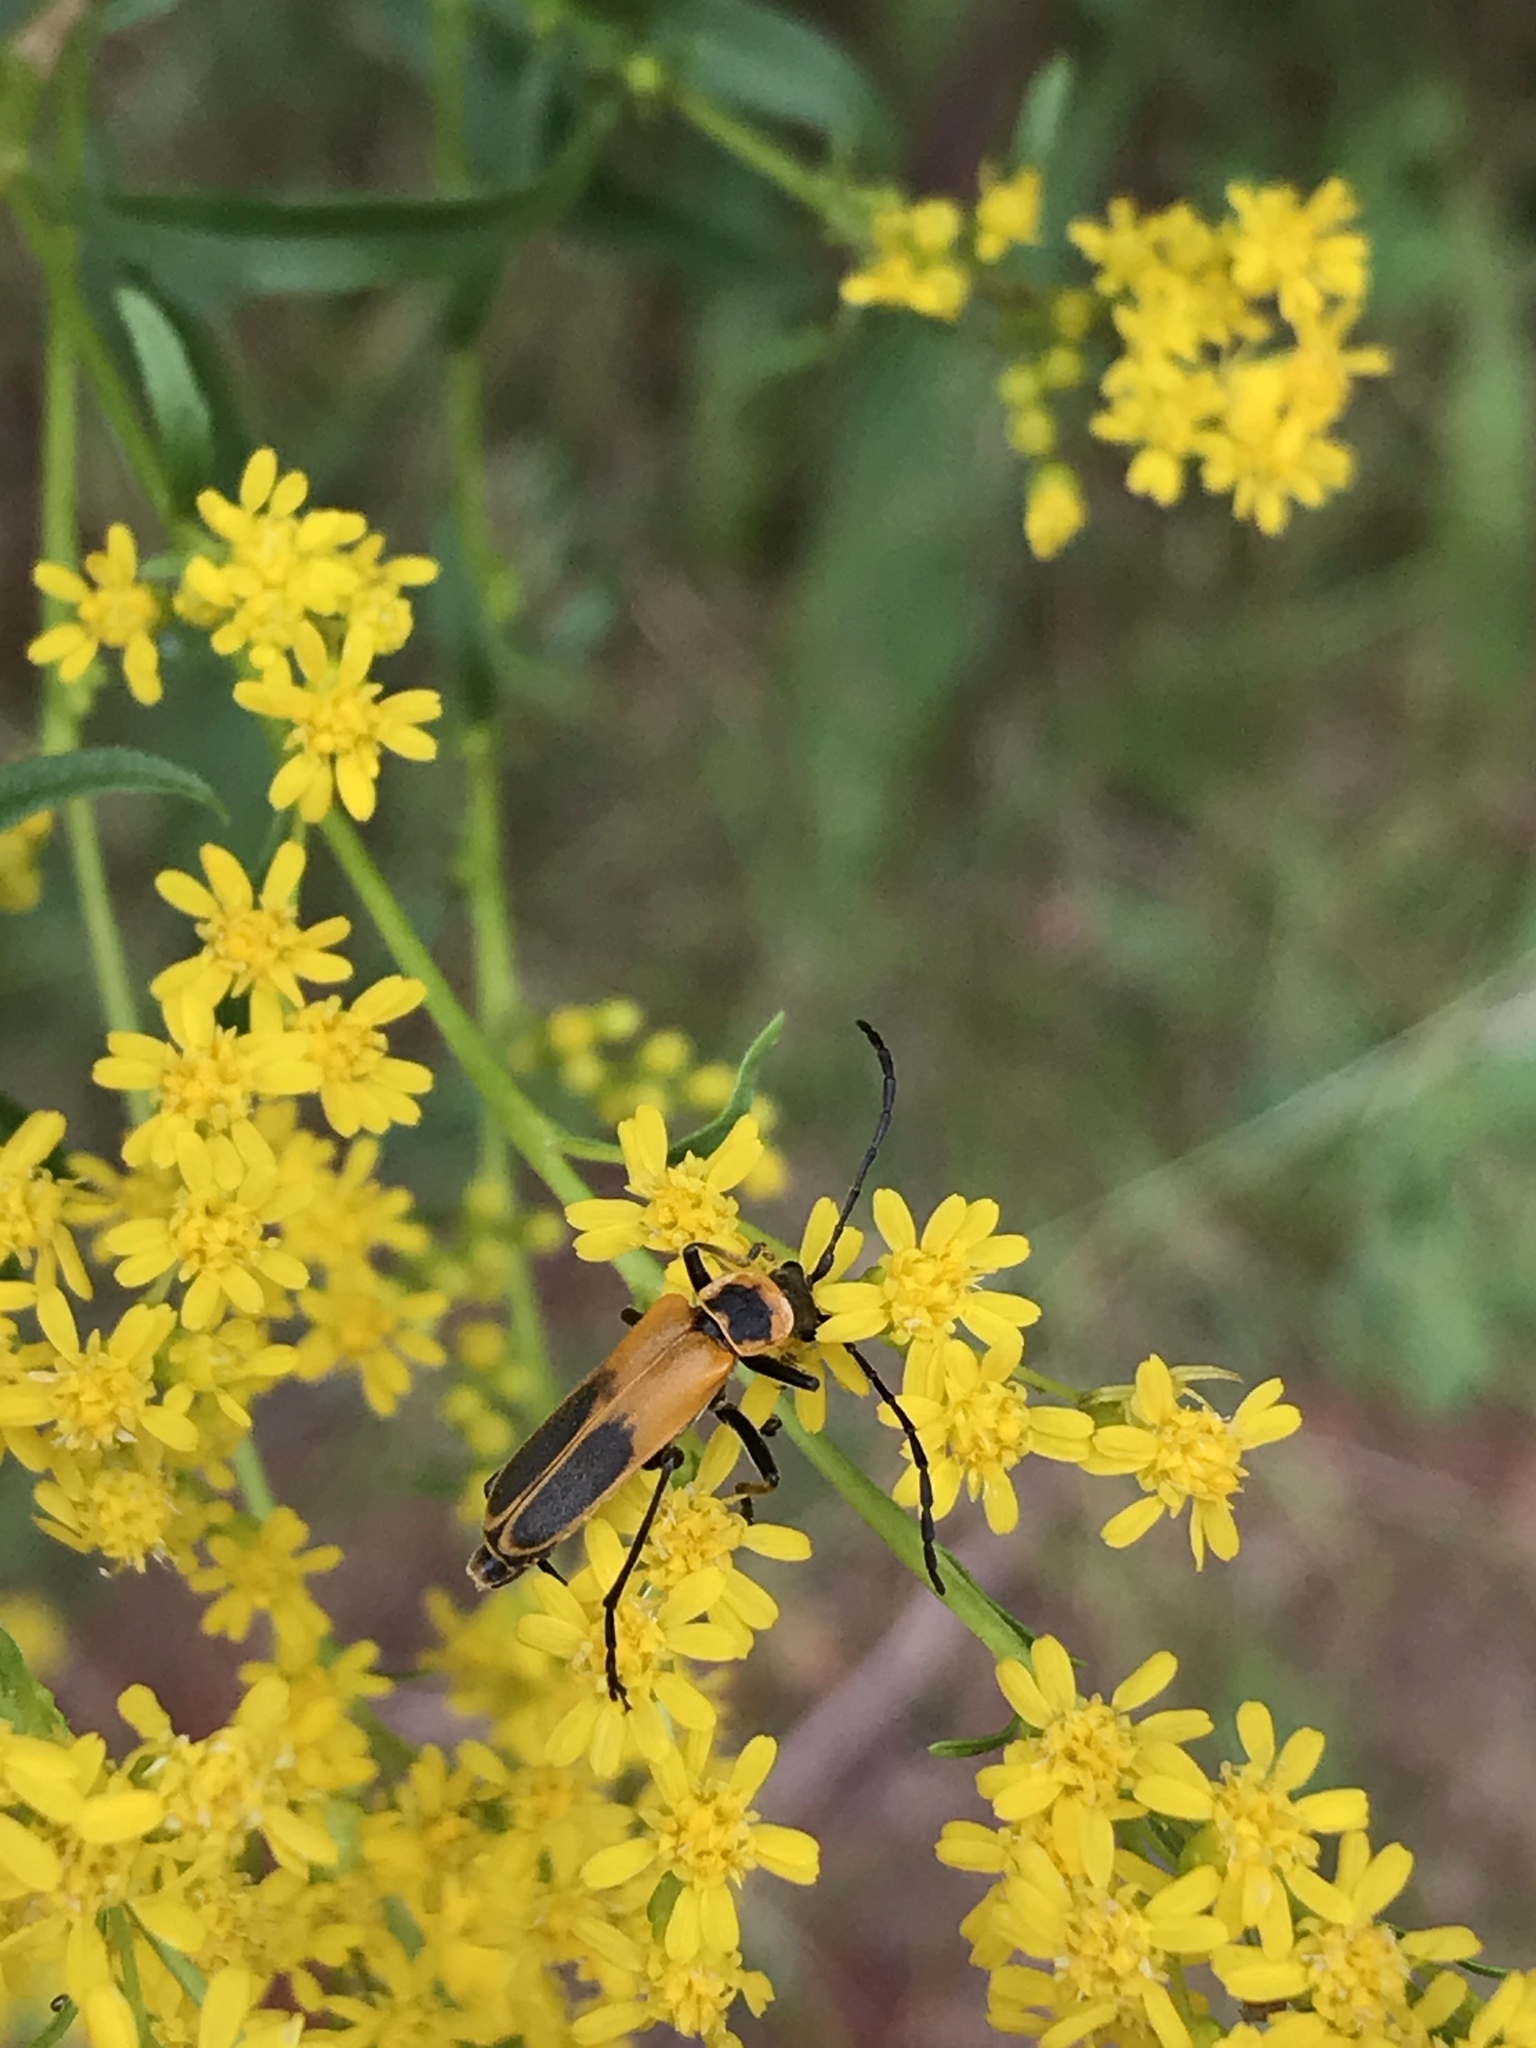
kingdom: Animalia
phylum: Arthropoda
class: Insecta
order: Coleoptera
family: Cantharidae
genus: Chauliognathus
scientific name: Chauliognathus pensylvanicus
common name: Goldenrod soldier beetle
